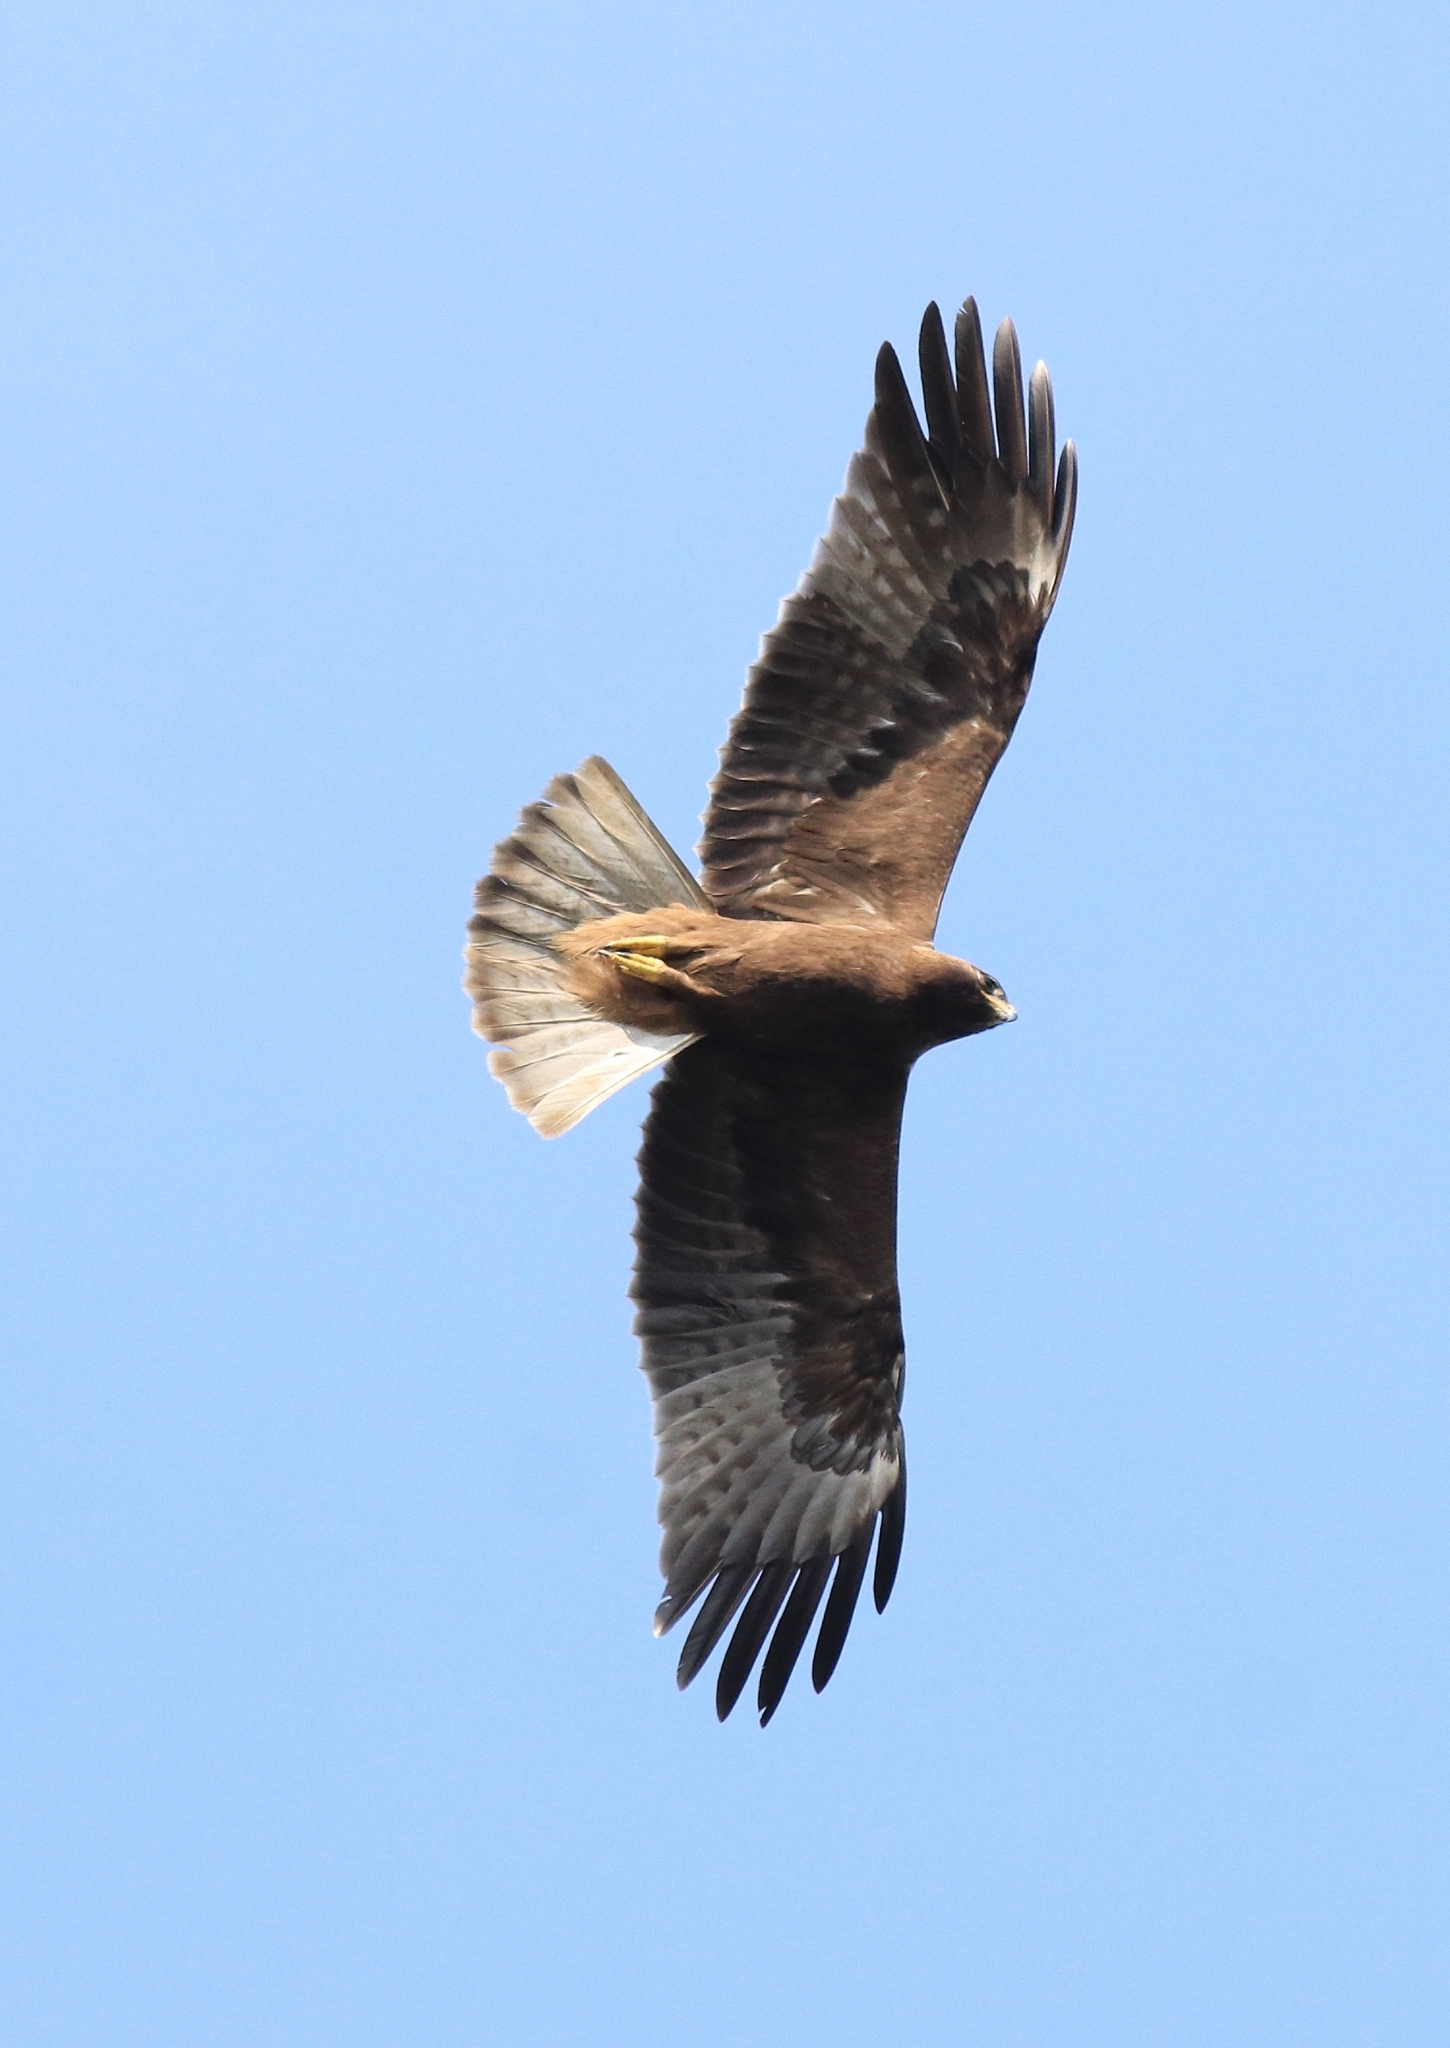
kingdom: Animalia
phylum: Chordata
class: Aves
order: Accipitriformes
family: Accipitridae
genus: Hieraaetus
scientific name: Hieraaetus pennatus
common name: Booted eagle
